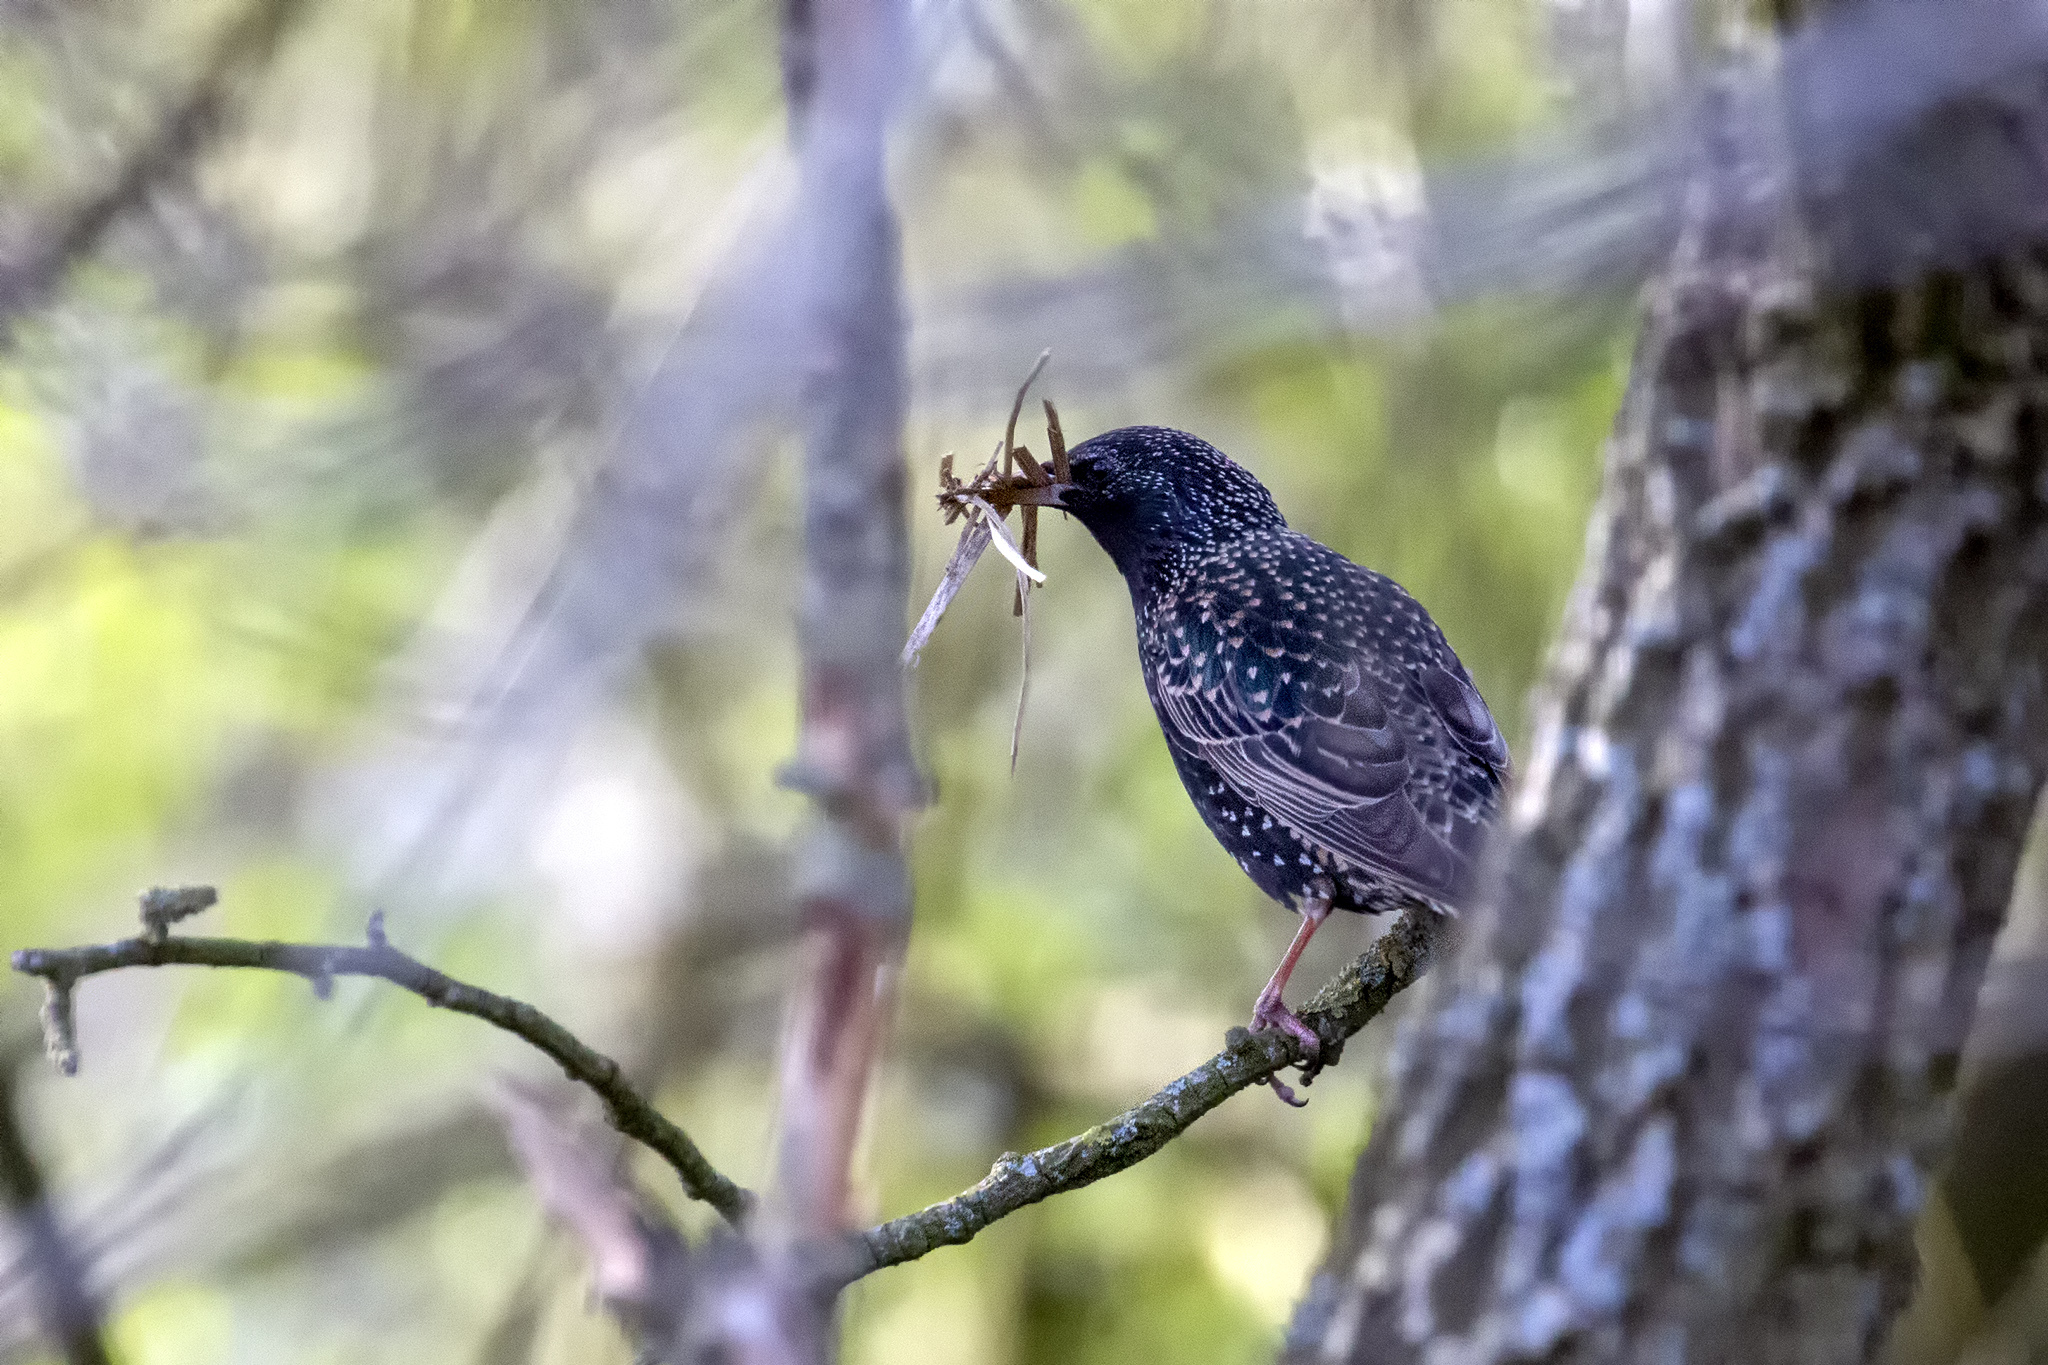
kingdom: Animalia
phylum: Chordata
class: Aves
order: Passeriformes
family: Sturnidae
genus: Sturnus
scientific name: Sturnus vulgaris
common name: Common starling
